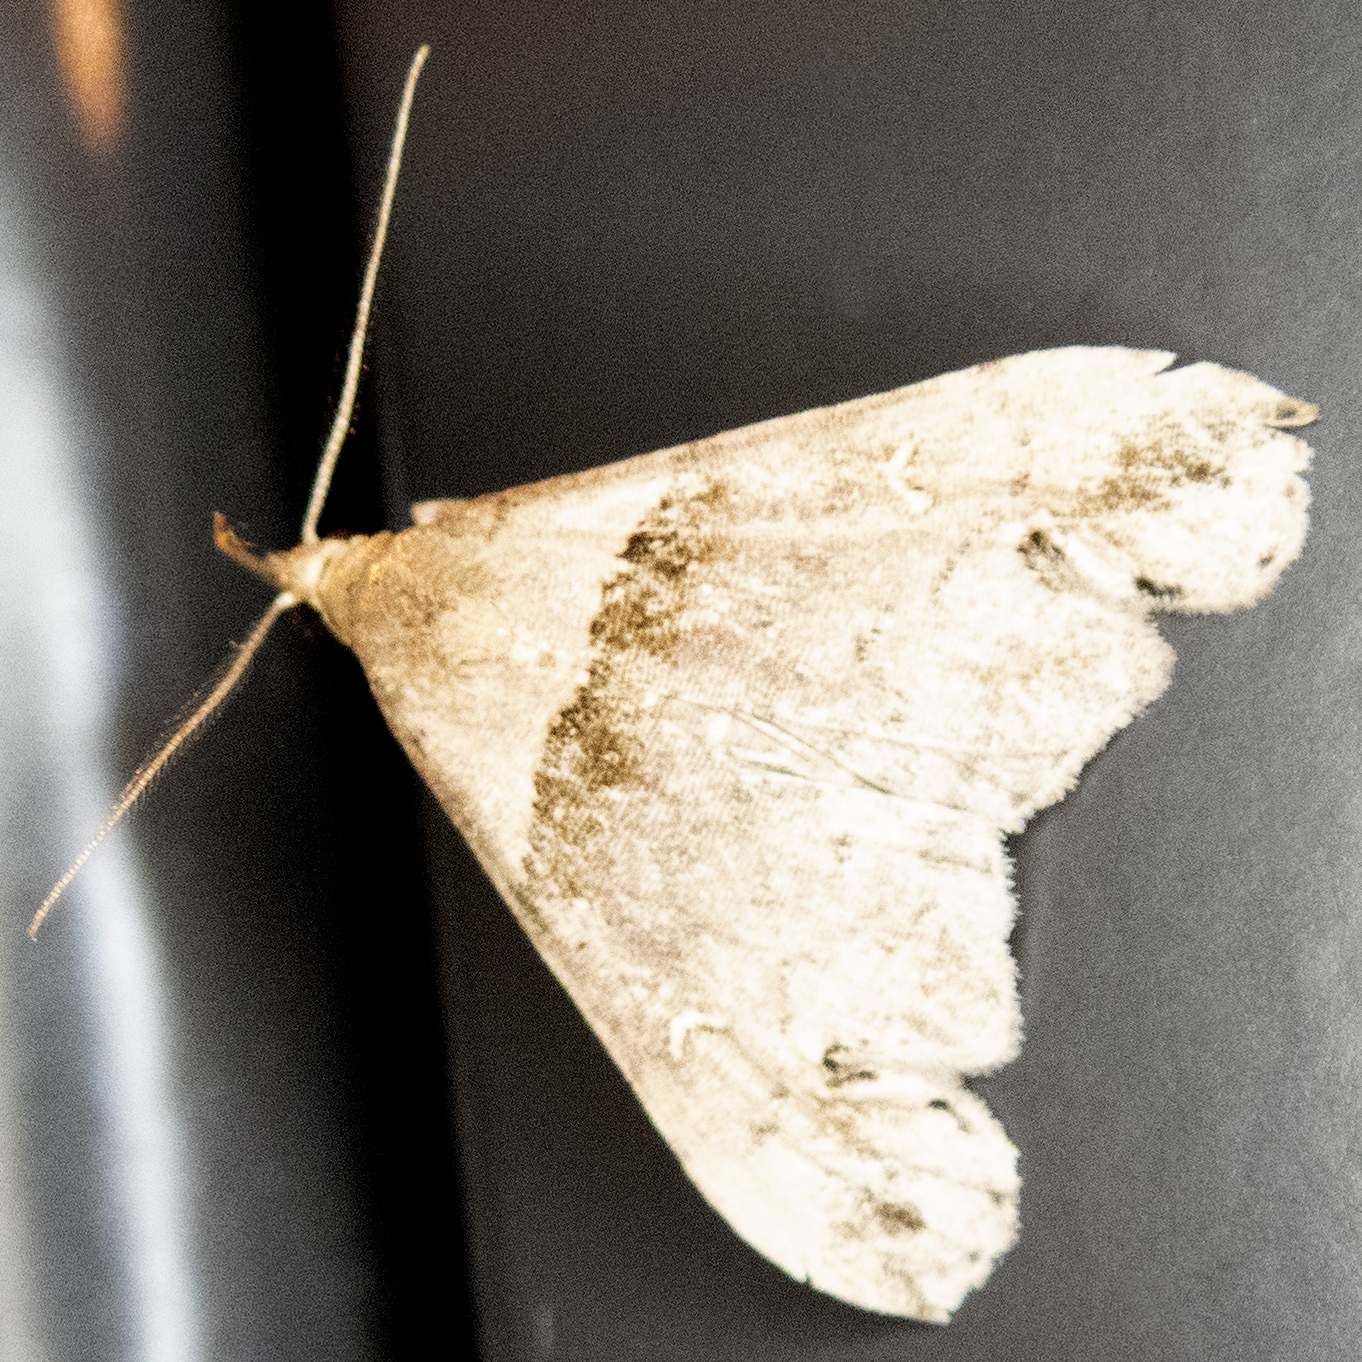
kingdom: Animalia
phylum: Arthropoda
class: Insecta
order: Lepidoptera
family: Erebidae
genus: Lascoria
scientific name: Lascoria ambigualis
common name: Ambiguous moth
